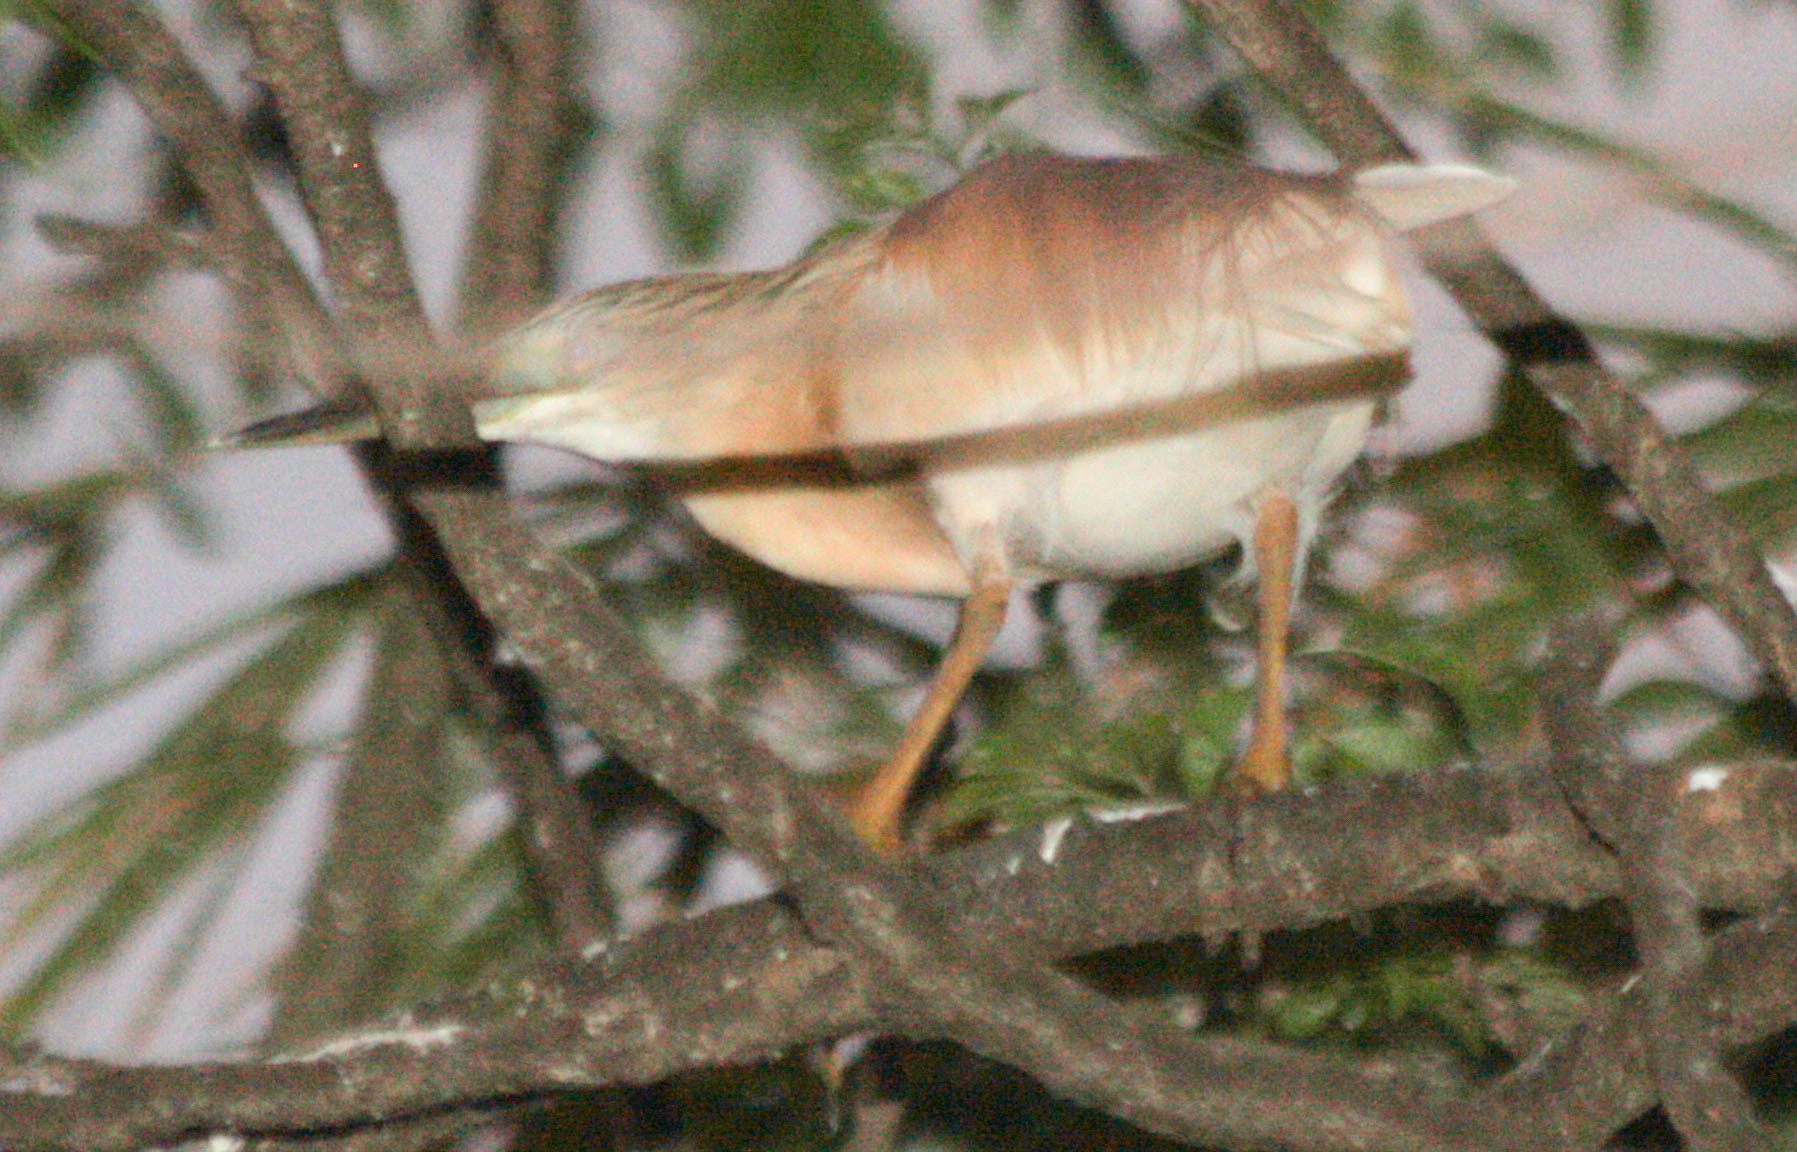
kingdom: Animalia
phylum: Chordata
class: Aves
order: Pelecaniformes
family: Ardeidae
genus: Ardeola
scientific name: Ardeola ralloides
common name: Squacco heron
